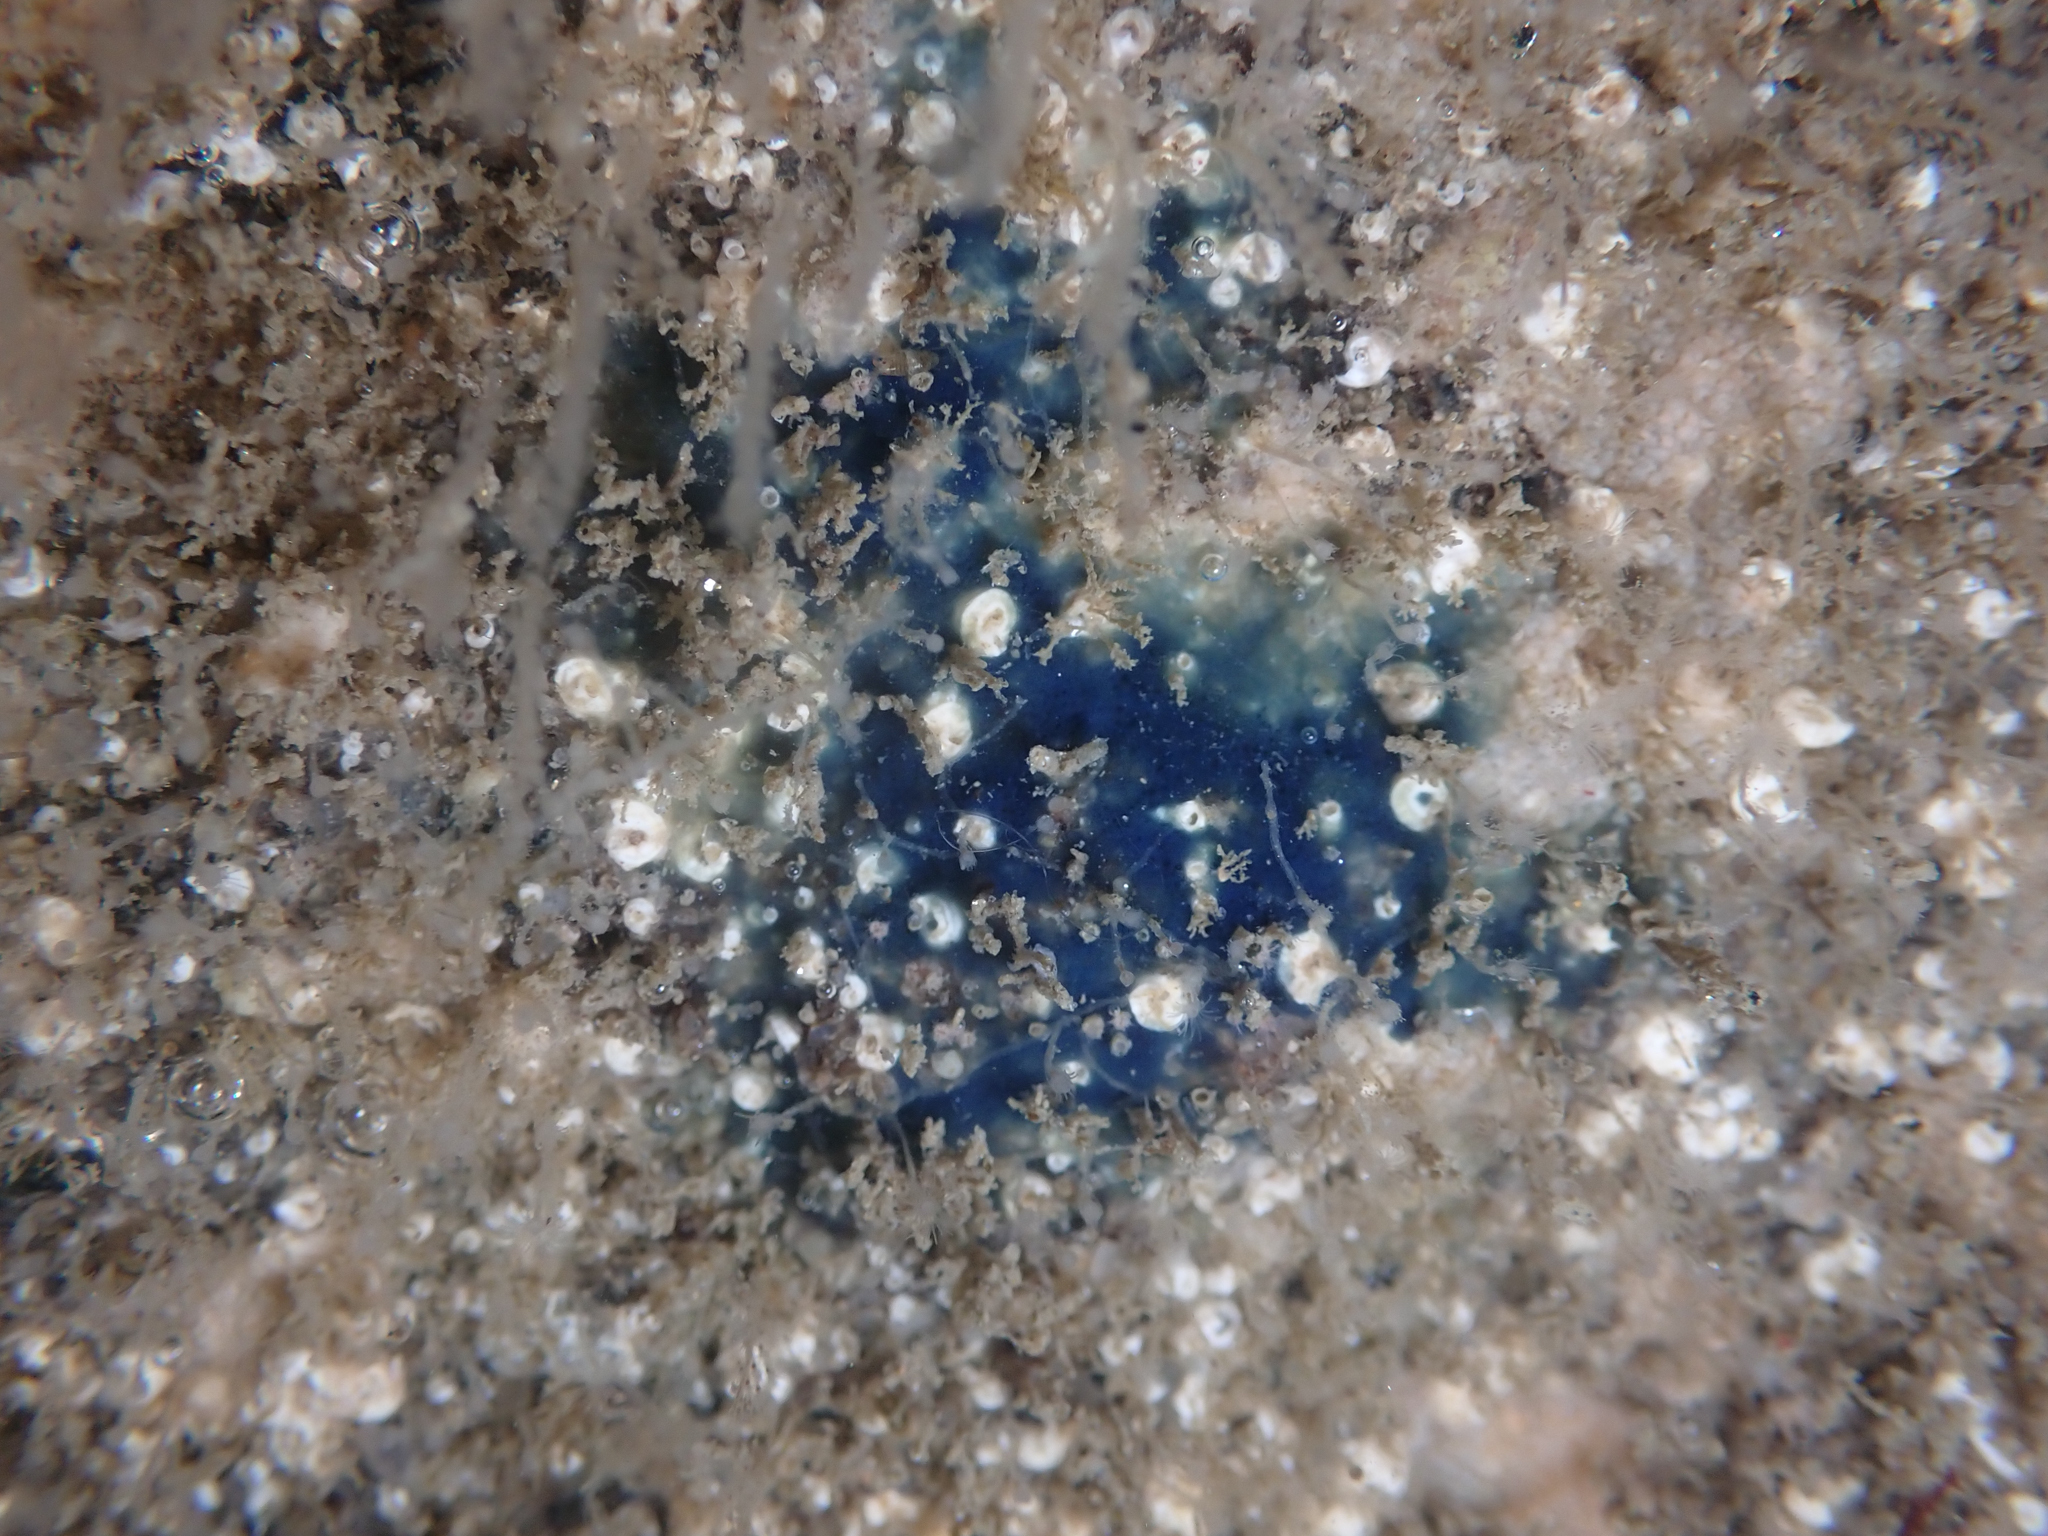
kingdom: Animalia
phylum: Porifera
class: Demospongiae
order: Poecilosclerida
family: Hymedesmiidae
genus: Acanthancora
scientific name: Acanthancora cyanocrypta
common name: Cobalt blue horny sponge
